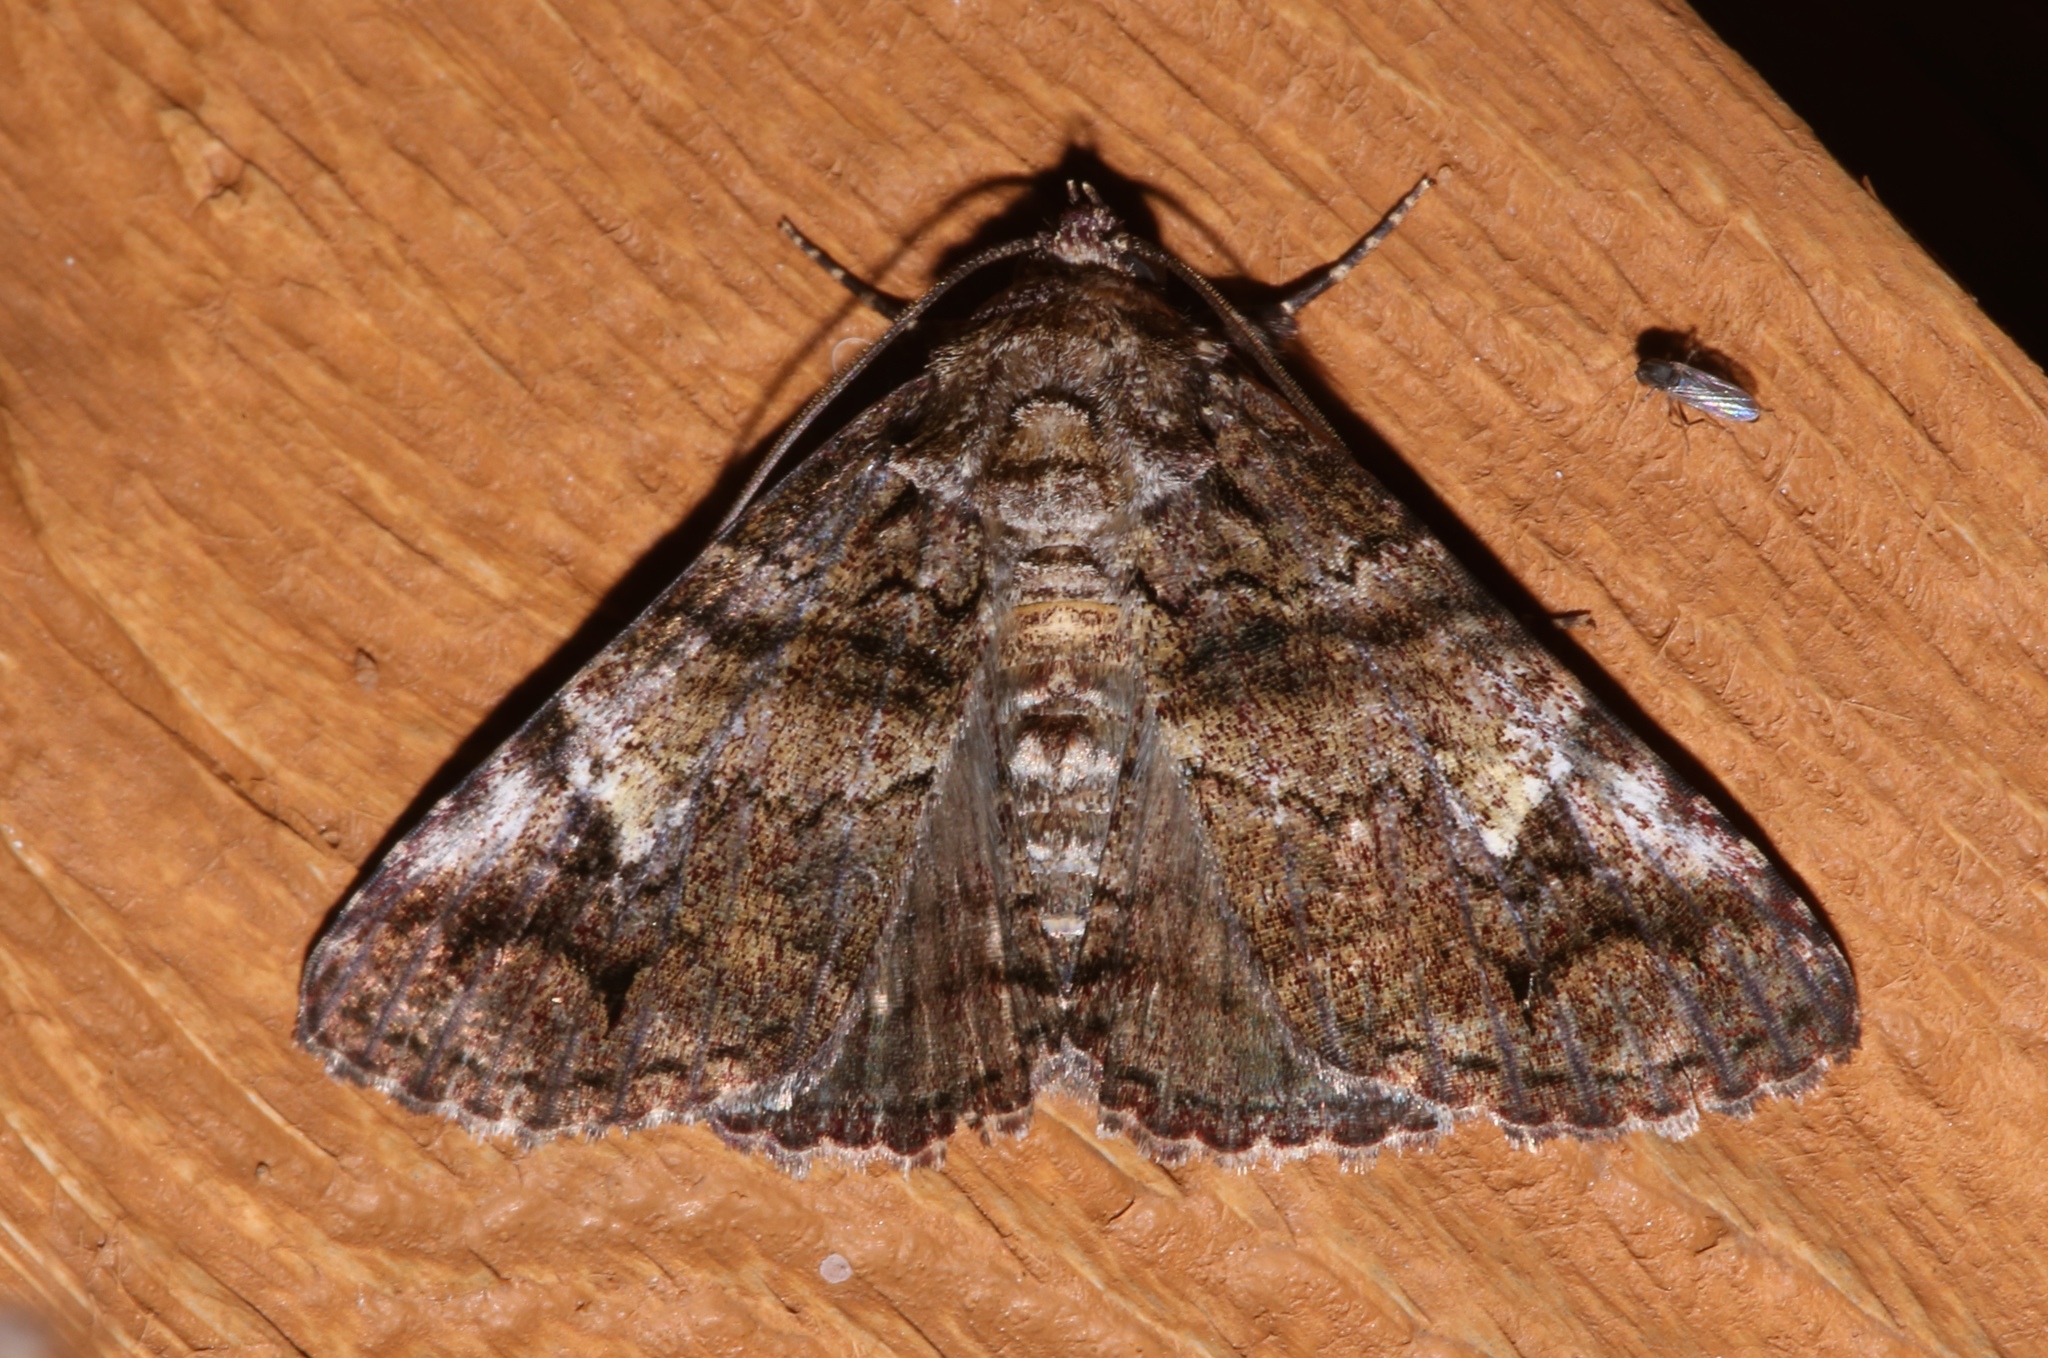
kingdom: Animalia
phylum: Arthropoda
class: Insecta
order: Lepidoptera
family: Erebidae
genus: Metria
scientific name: Metria amella
